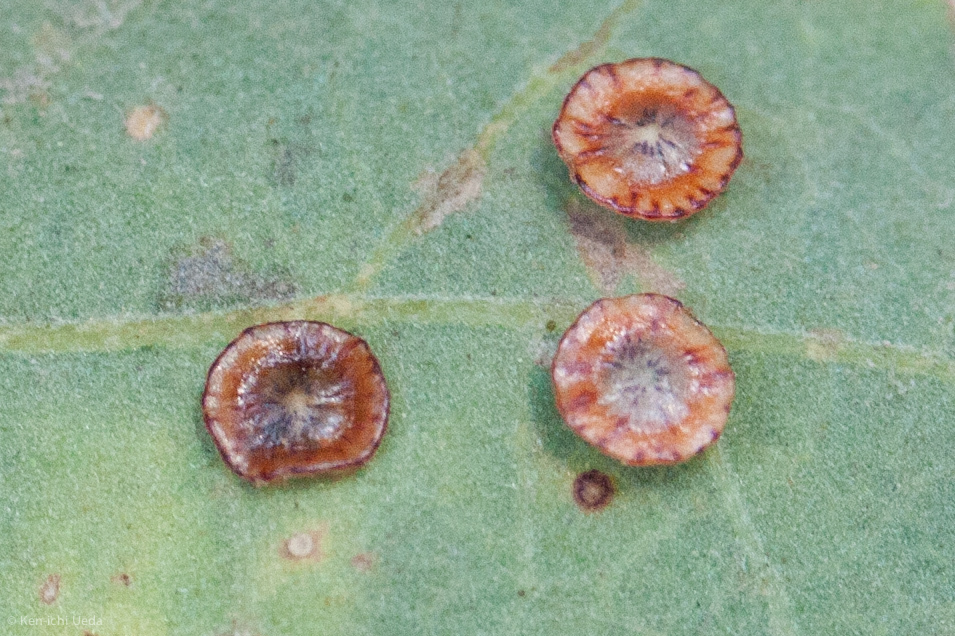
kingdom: Animalia
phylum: Arthropoda
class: Insecta
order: Hymenoptera
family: Cynipidae
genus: Andricus
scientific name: Andricus
